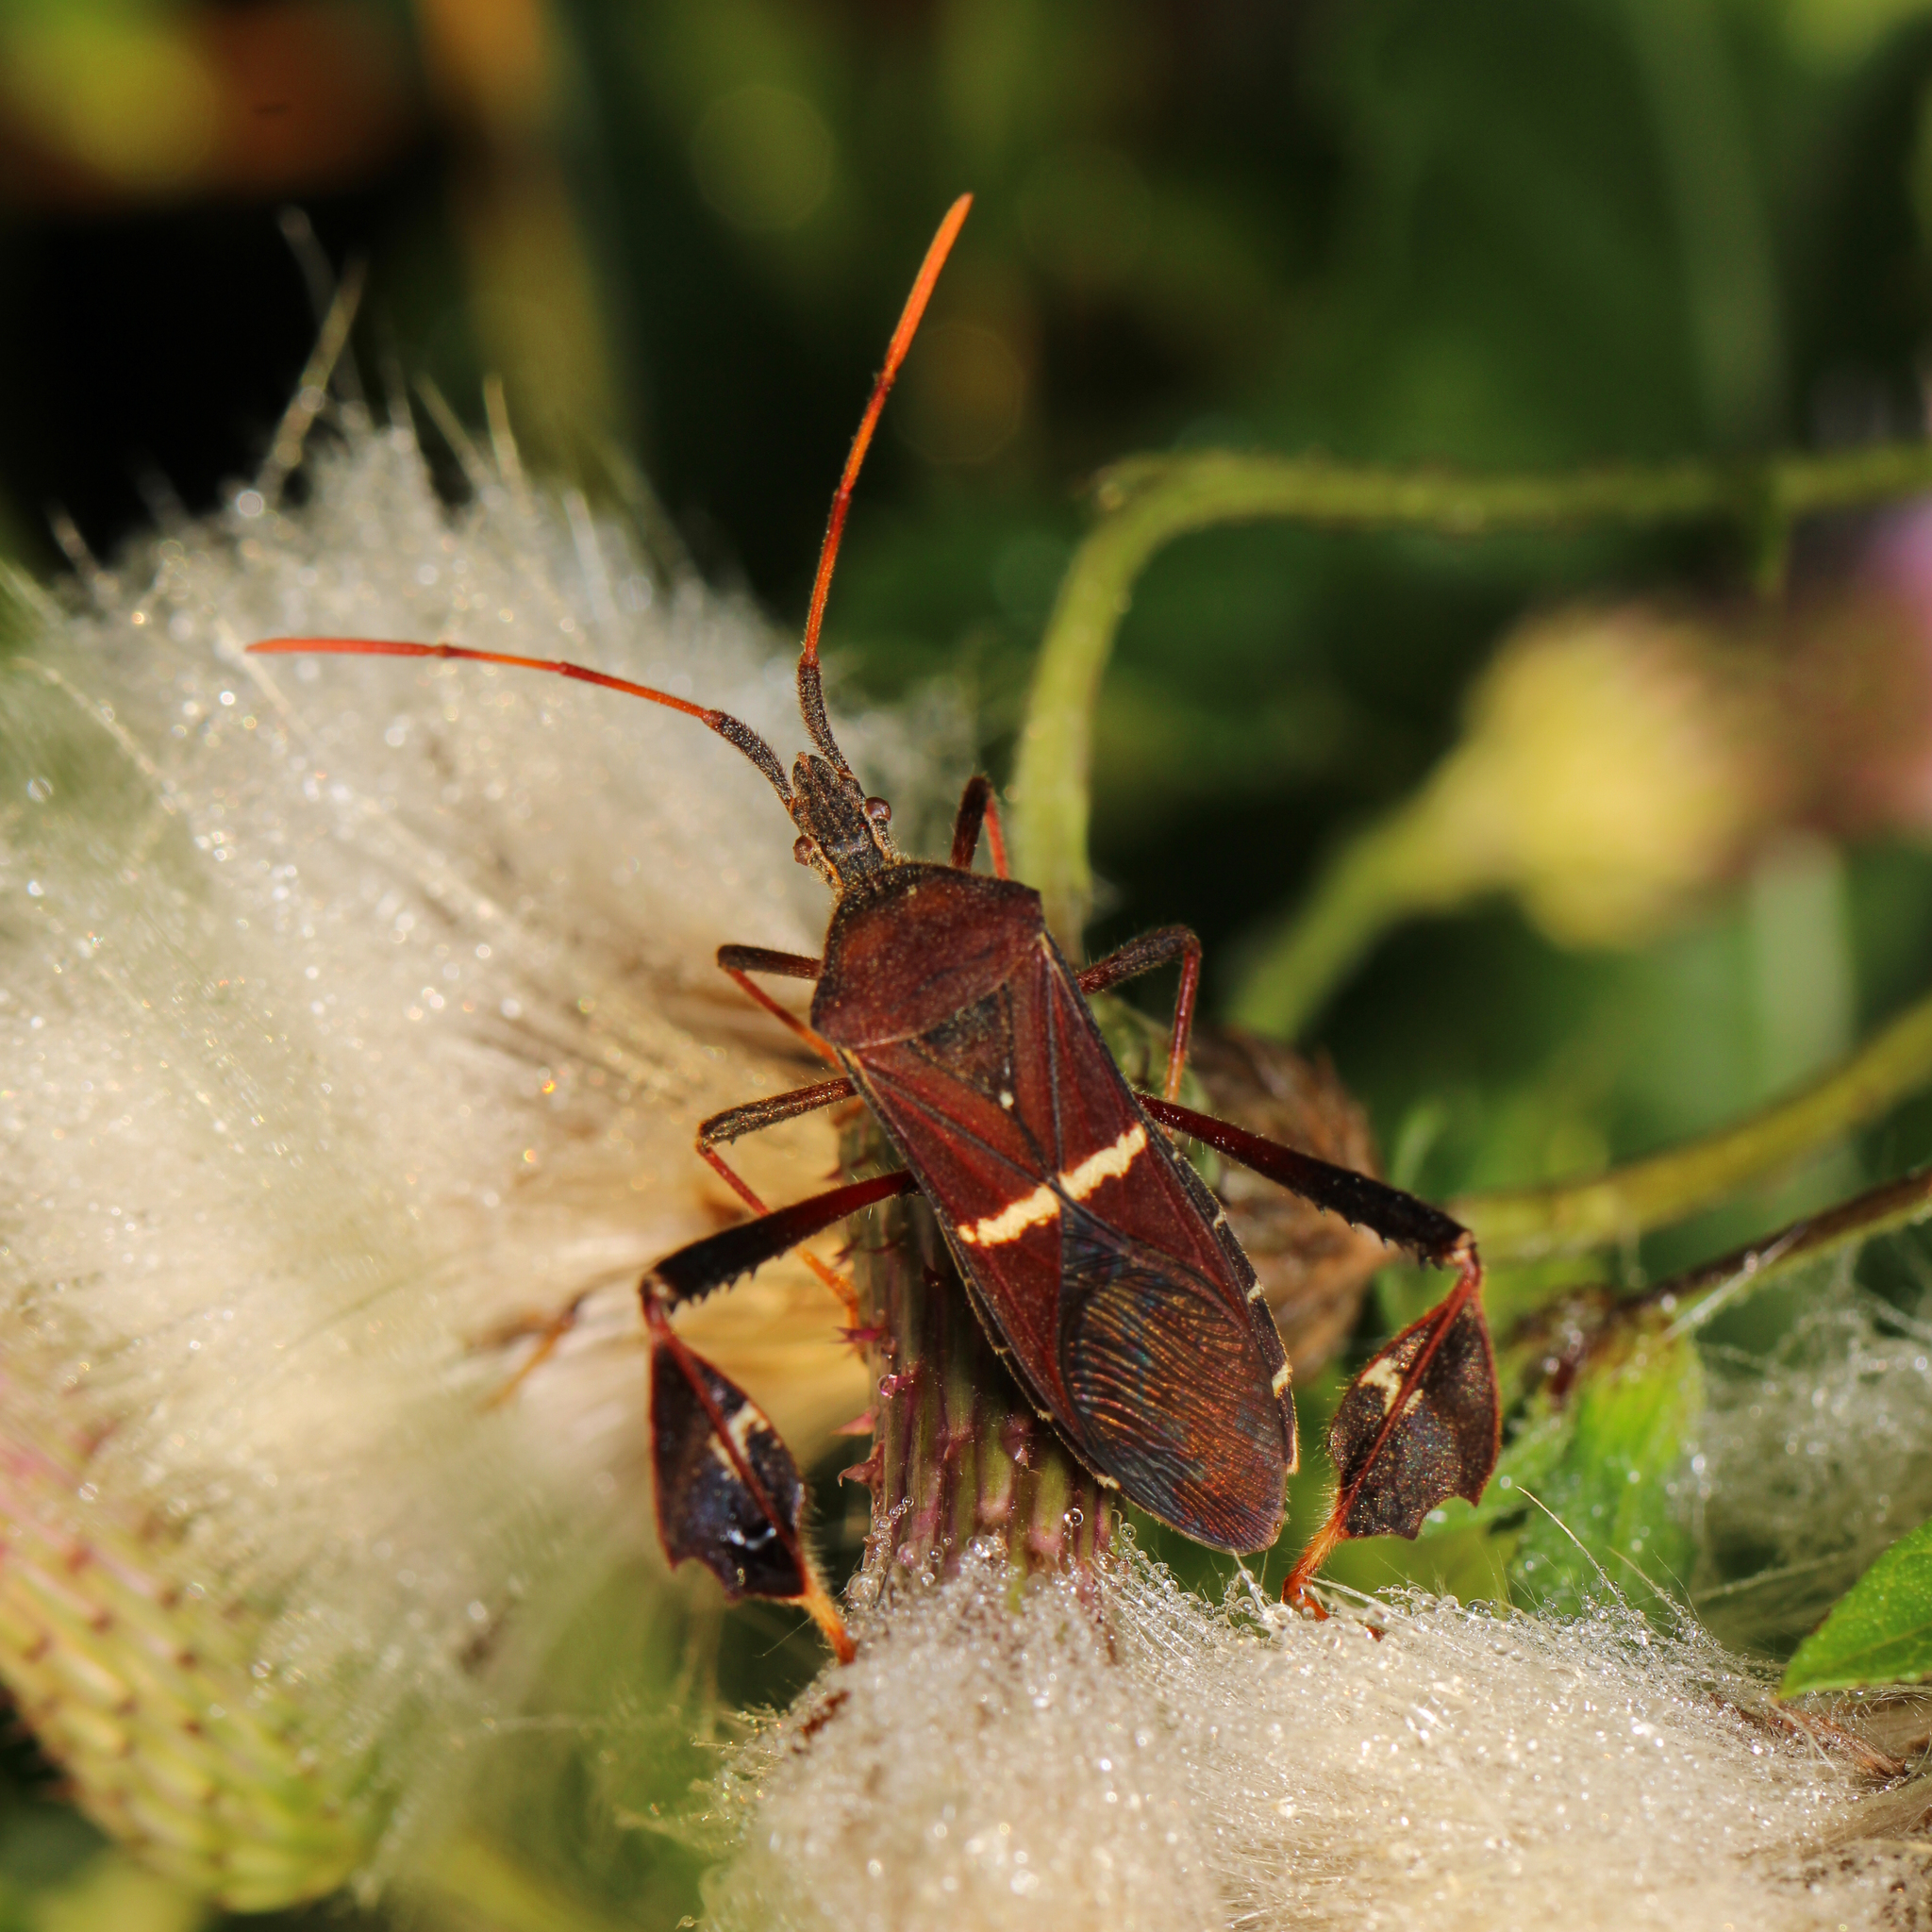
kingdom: Animalia
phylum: Arthropoda
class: Insecta
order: Hemiptera
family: Coreidae
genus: Leptoglossus
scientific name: Leptoglossus phyllopus
